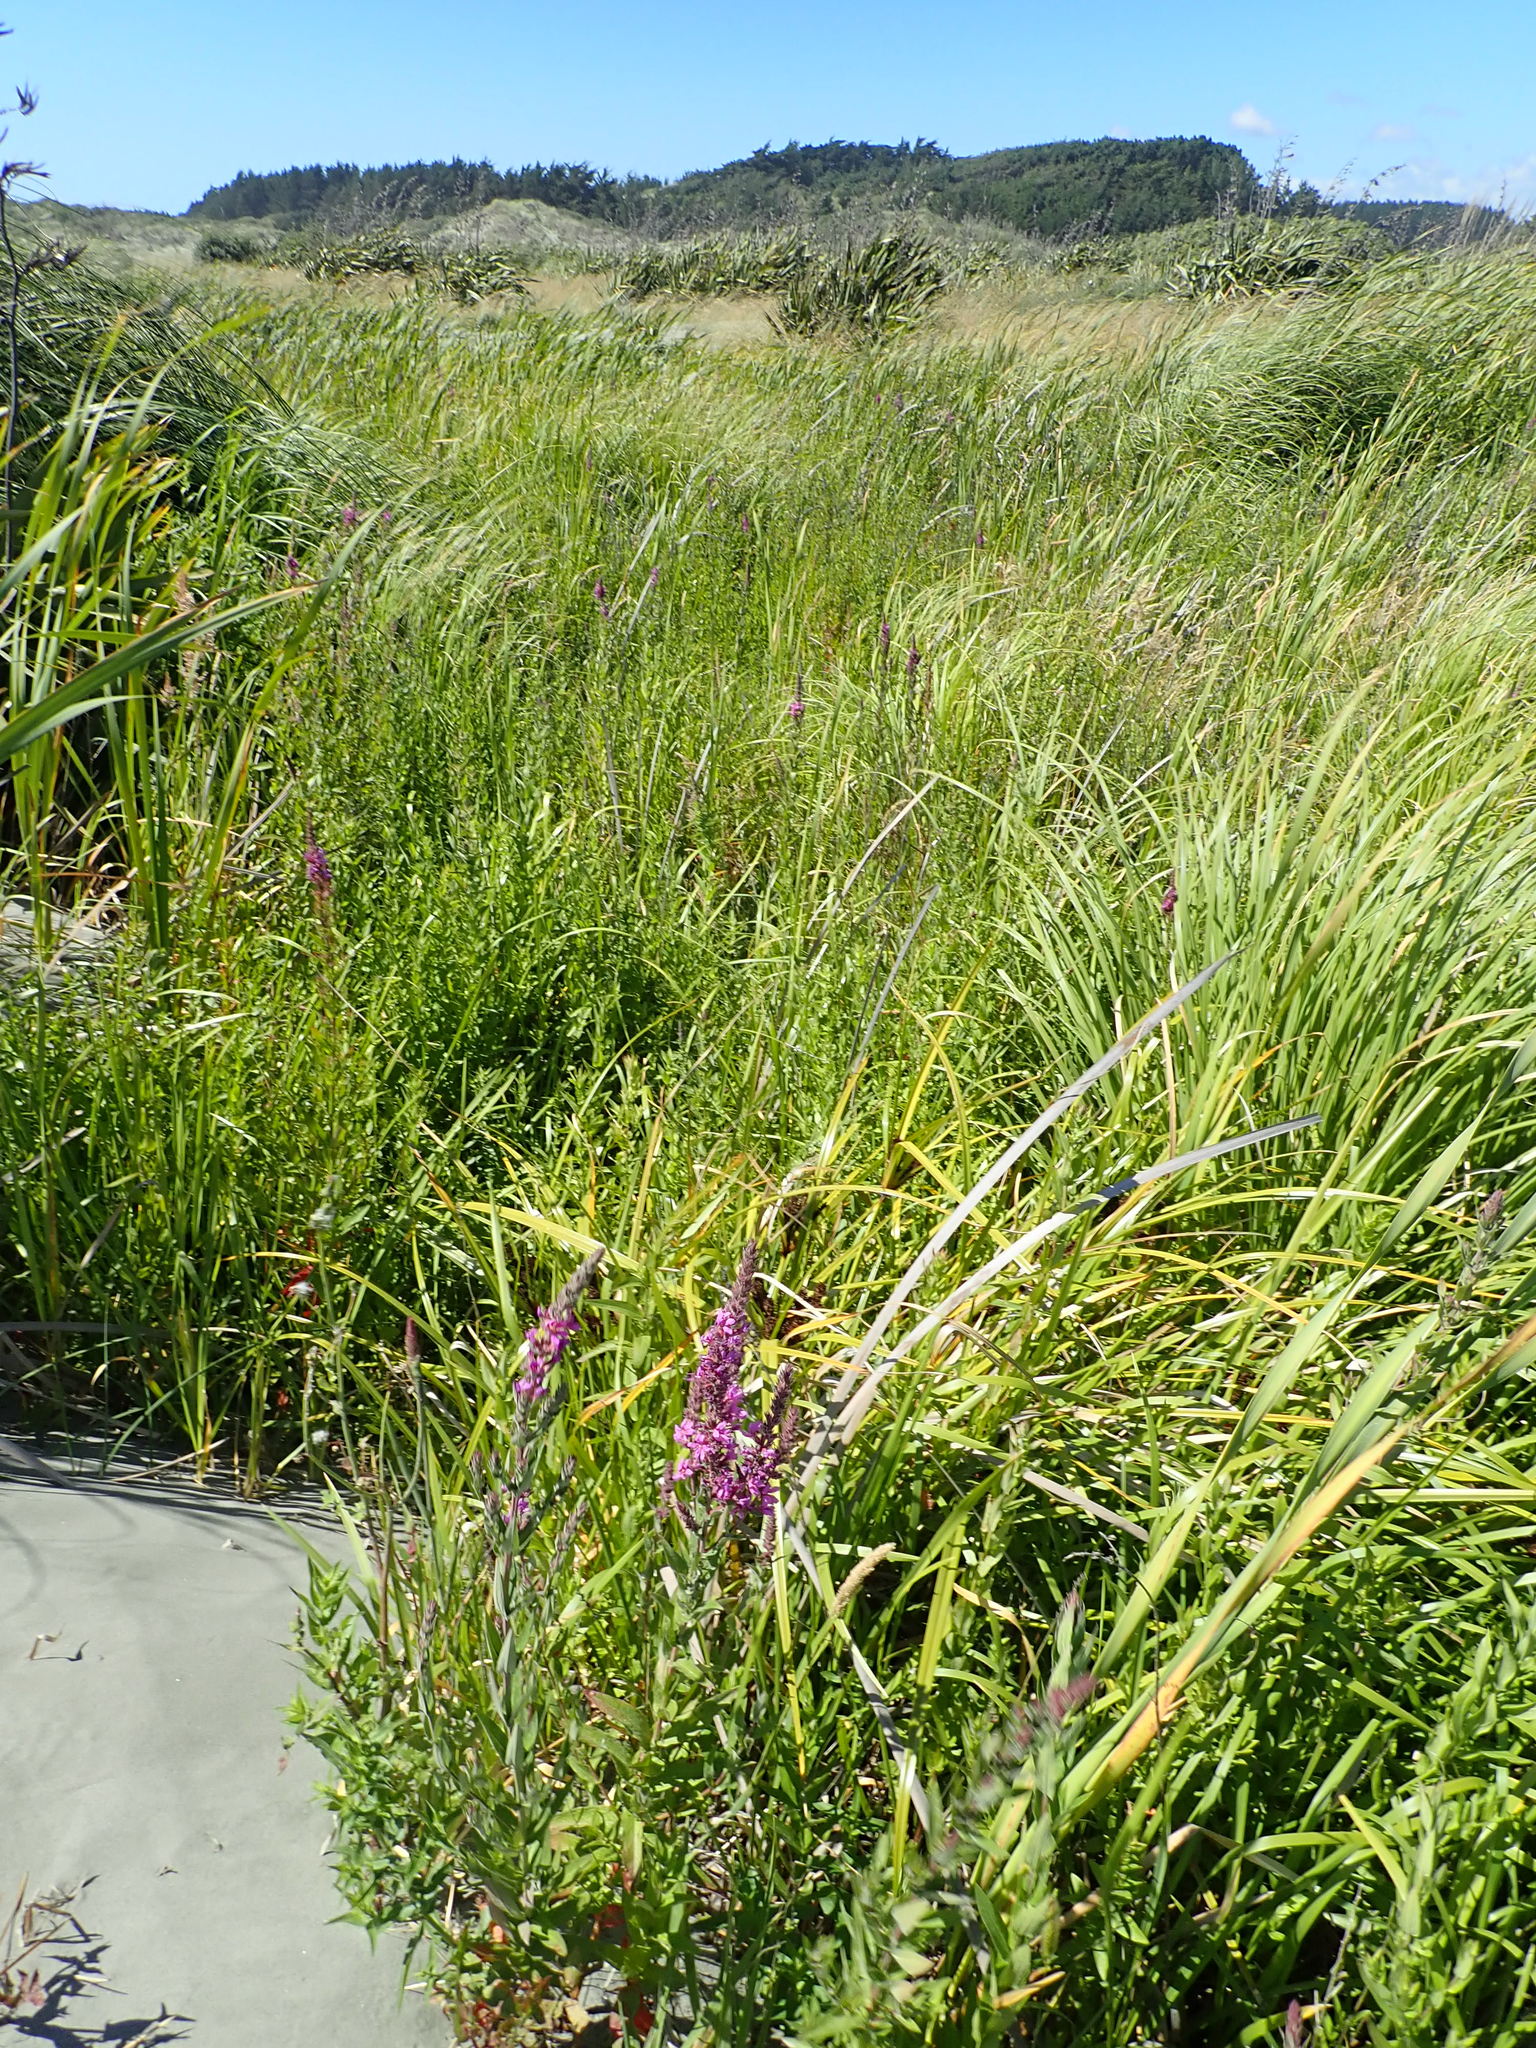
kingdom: Plantae
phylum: Tracheophyta
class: Liliopsida
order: Poales
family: Cyperaceae
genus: Cyperus
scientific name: Cyperus ustulatus
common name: Giant umbrella-sedge
